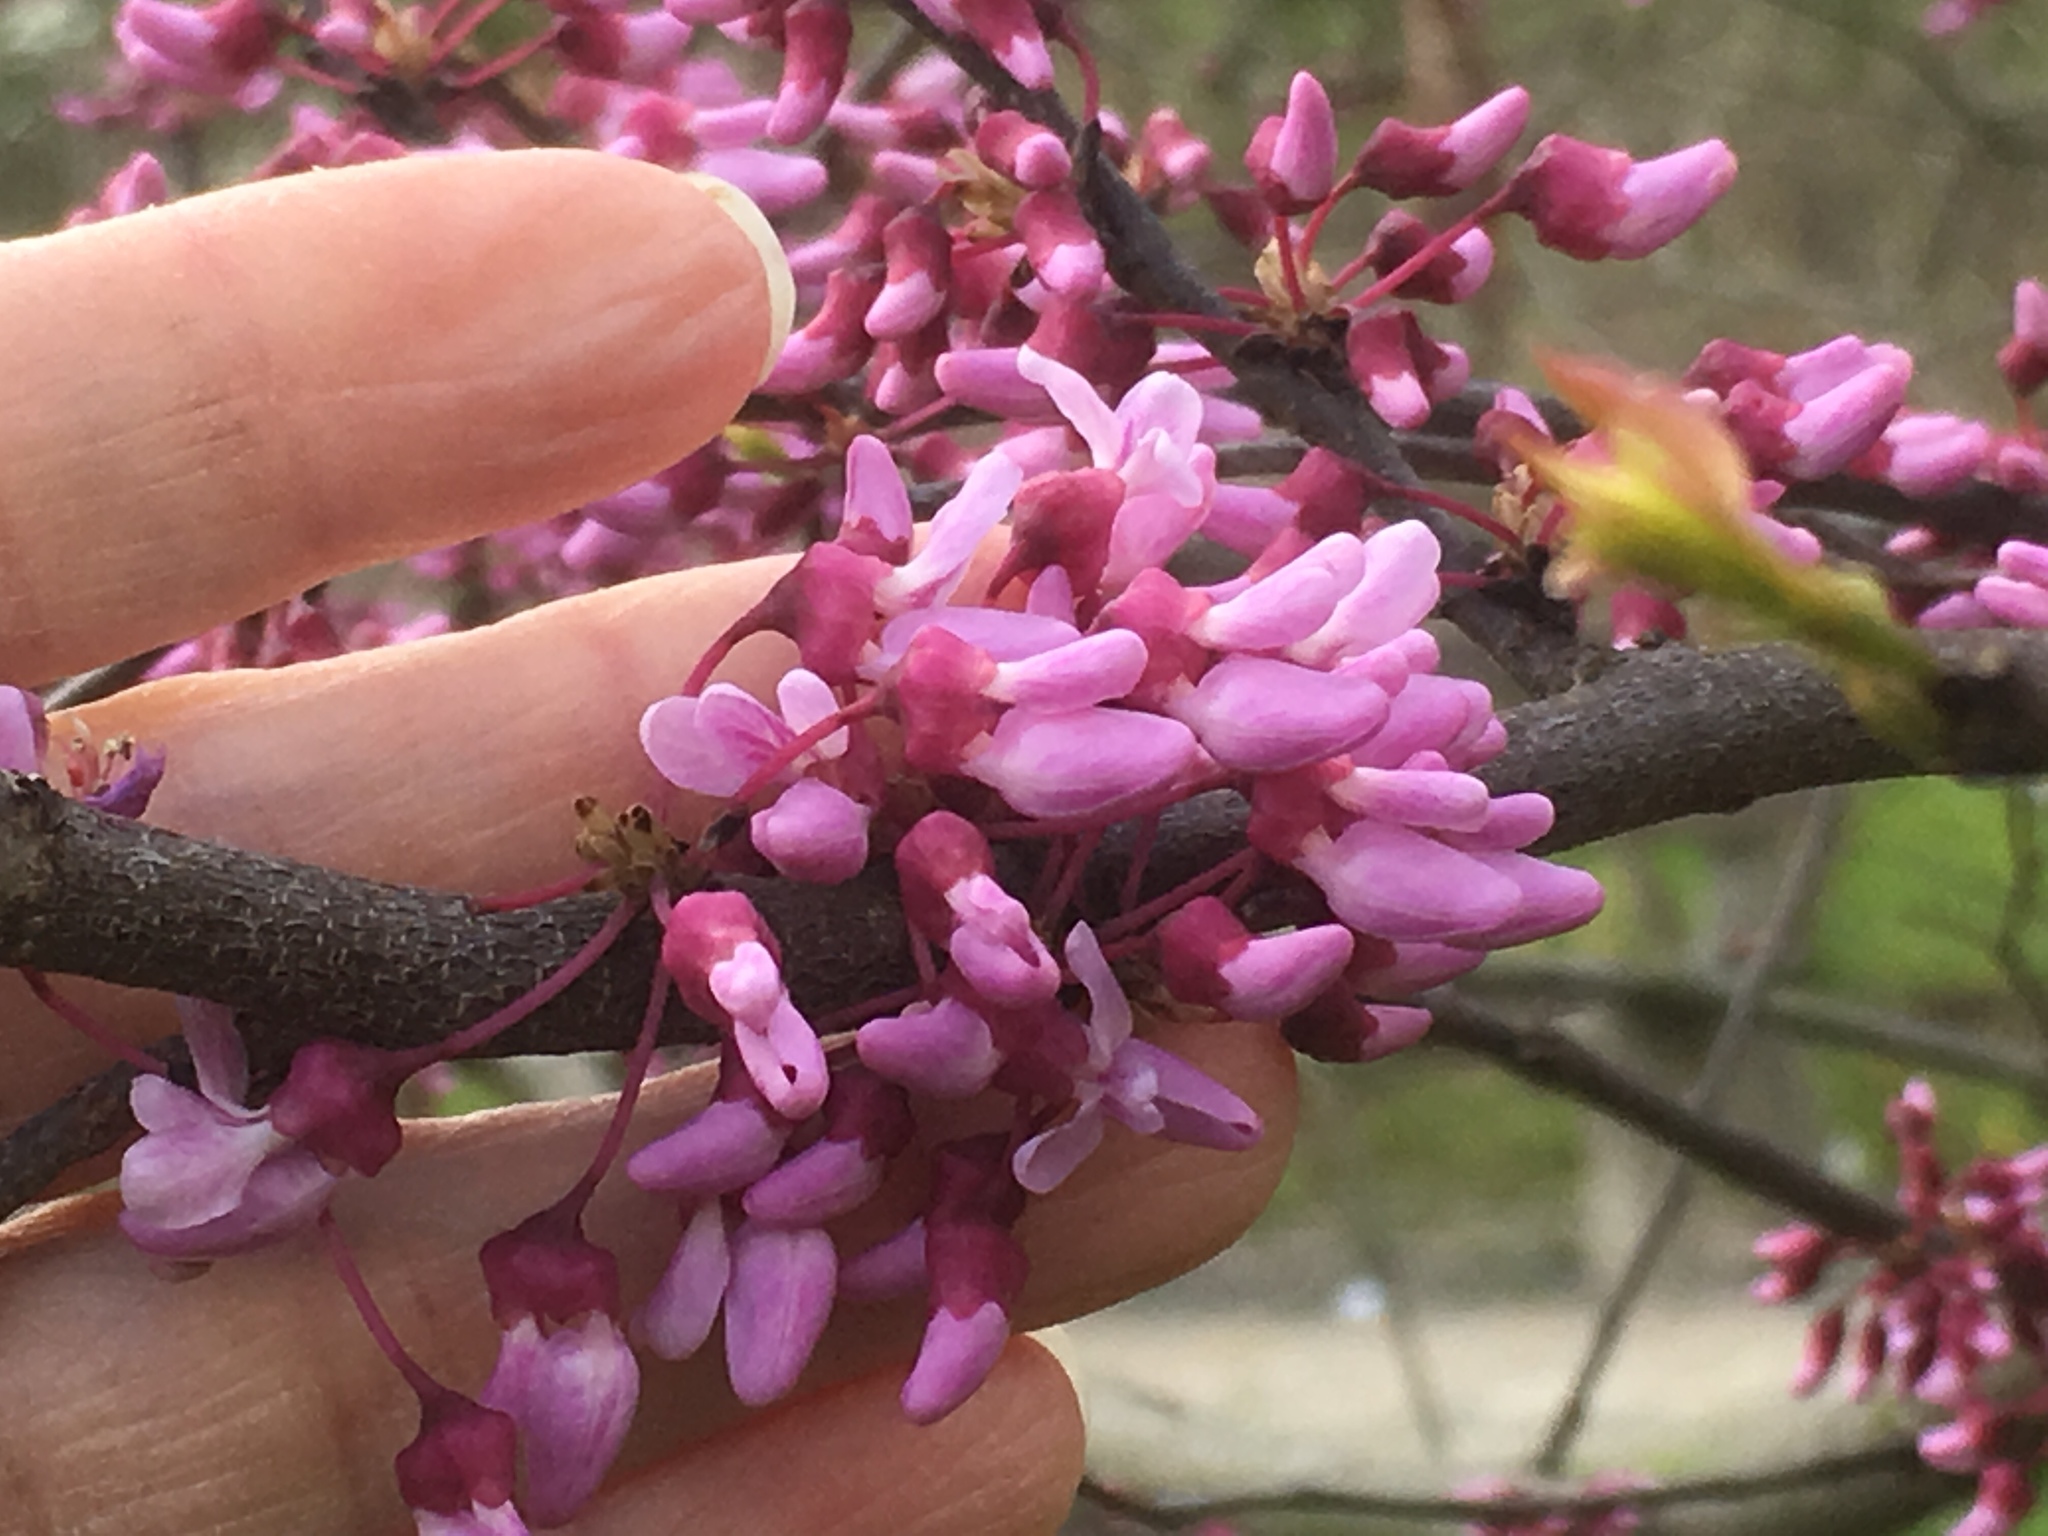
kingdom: Plantae
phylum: Tracheophyta
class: Magnoliopsida
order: Fabales
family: Fabaceae
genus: Cercis
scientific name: Cercis canadensis
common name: Eastern redbud
